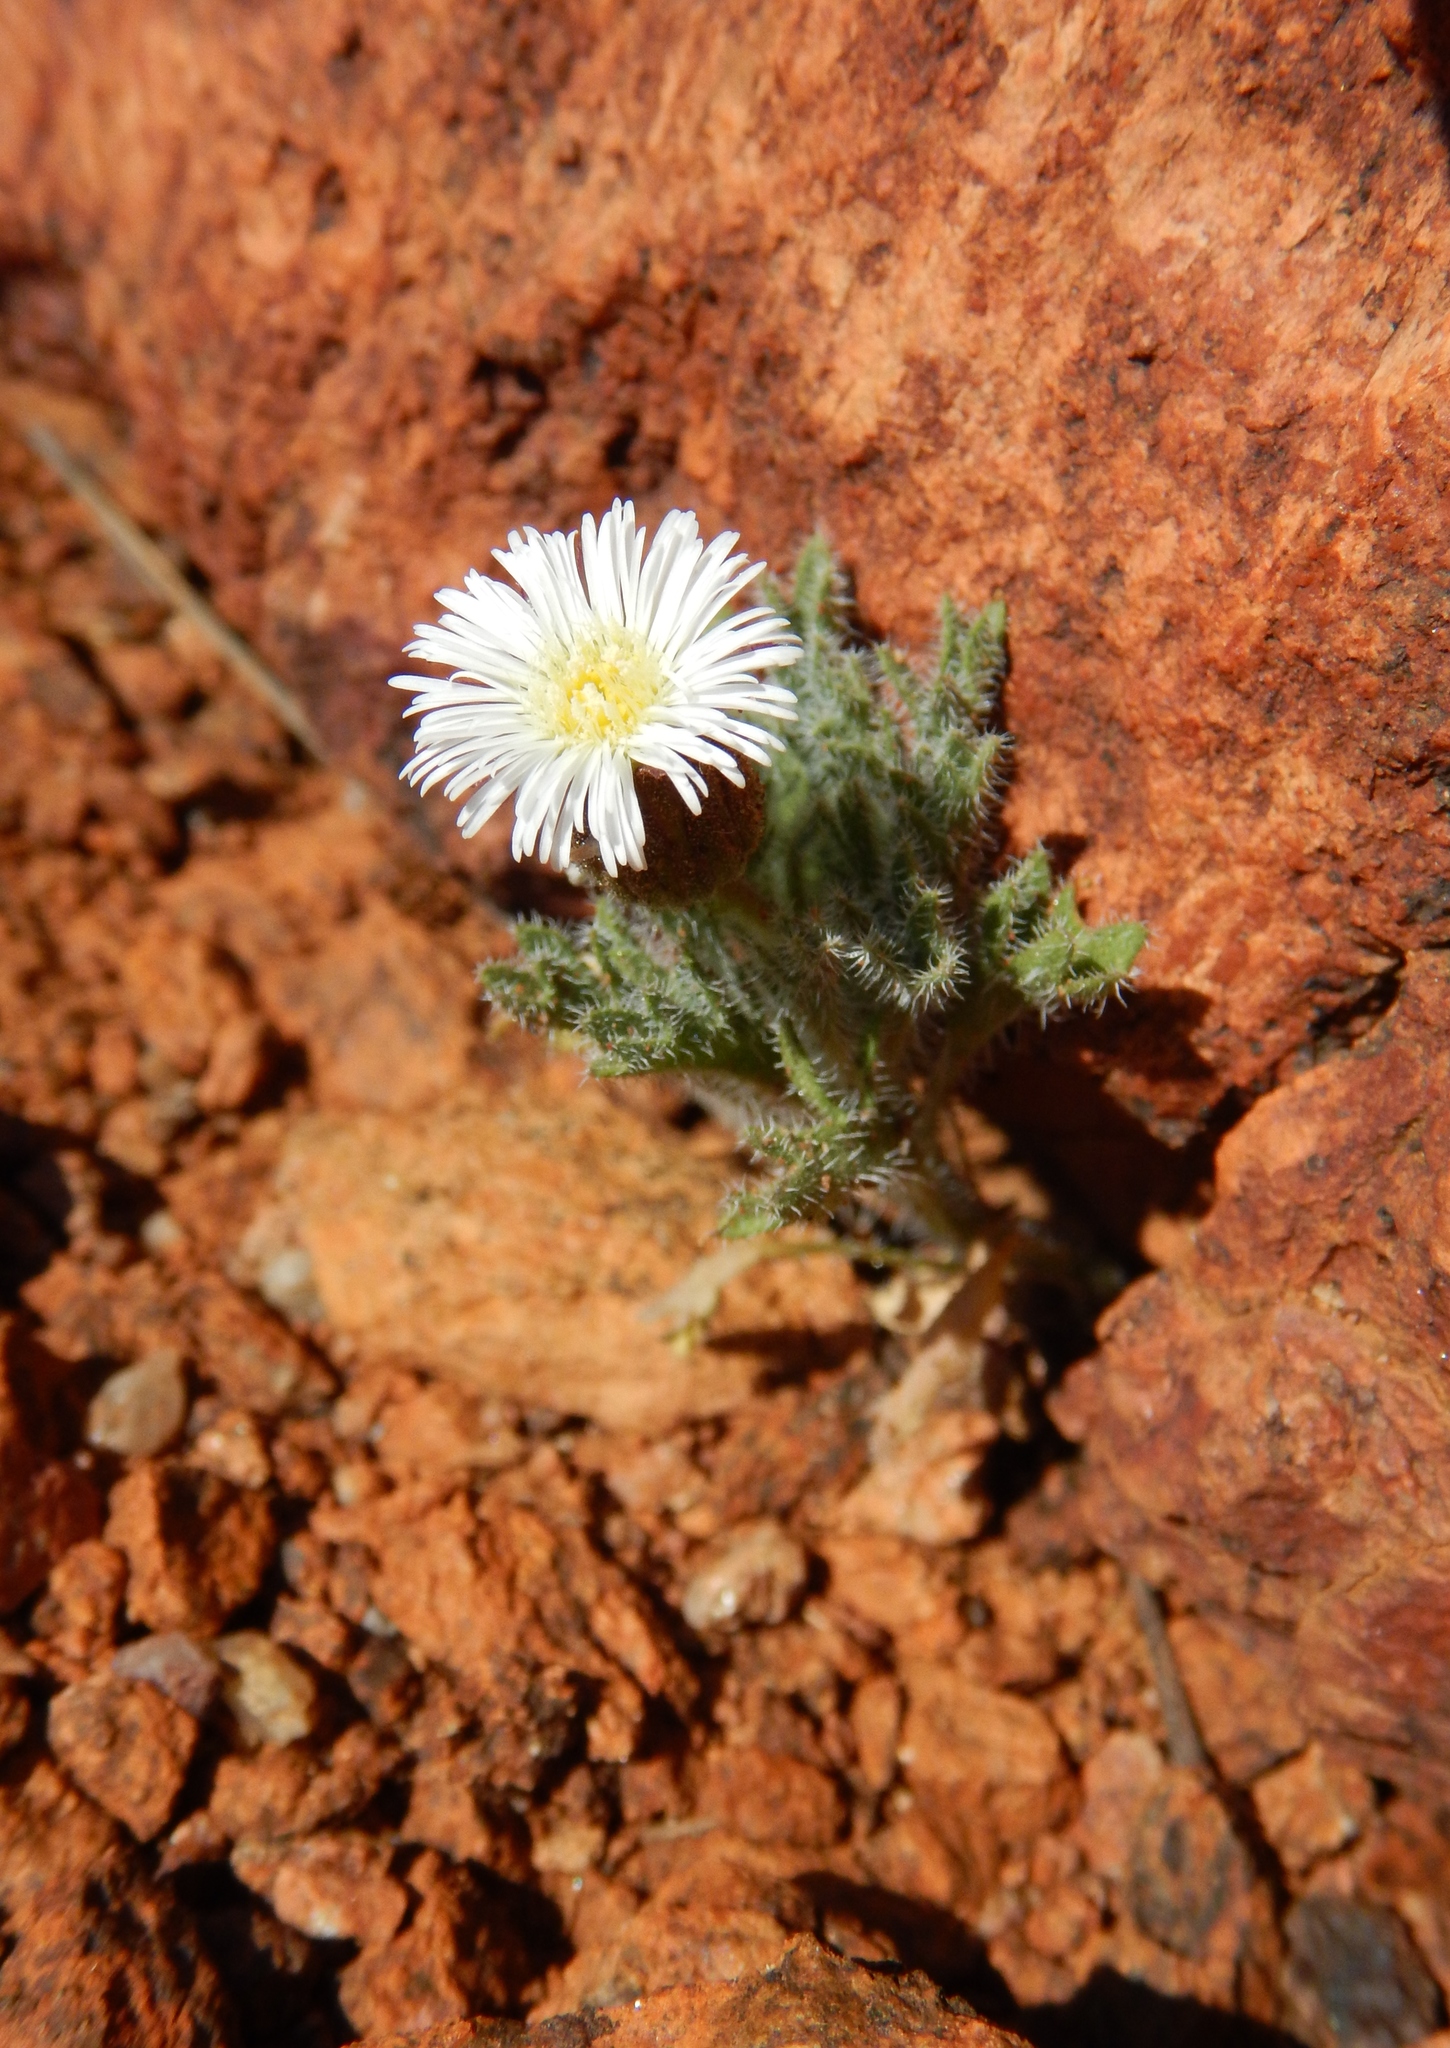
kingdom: Plantae
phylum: Tracheophyta
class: Magnoliopsida
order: Asterales
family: Asteraceae
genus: Ixiochlamys
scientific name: Ixiochlamys cuneifolia
